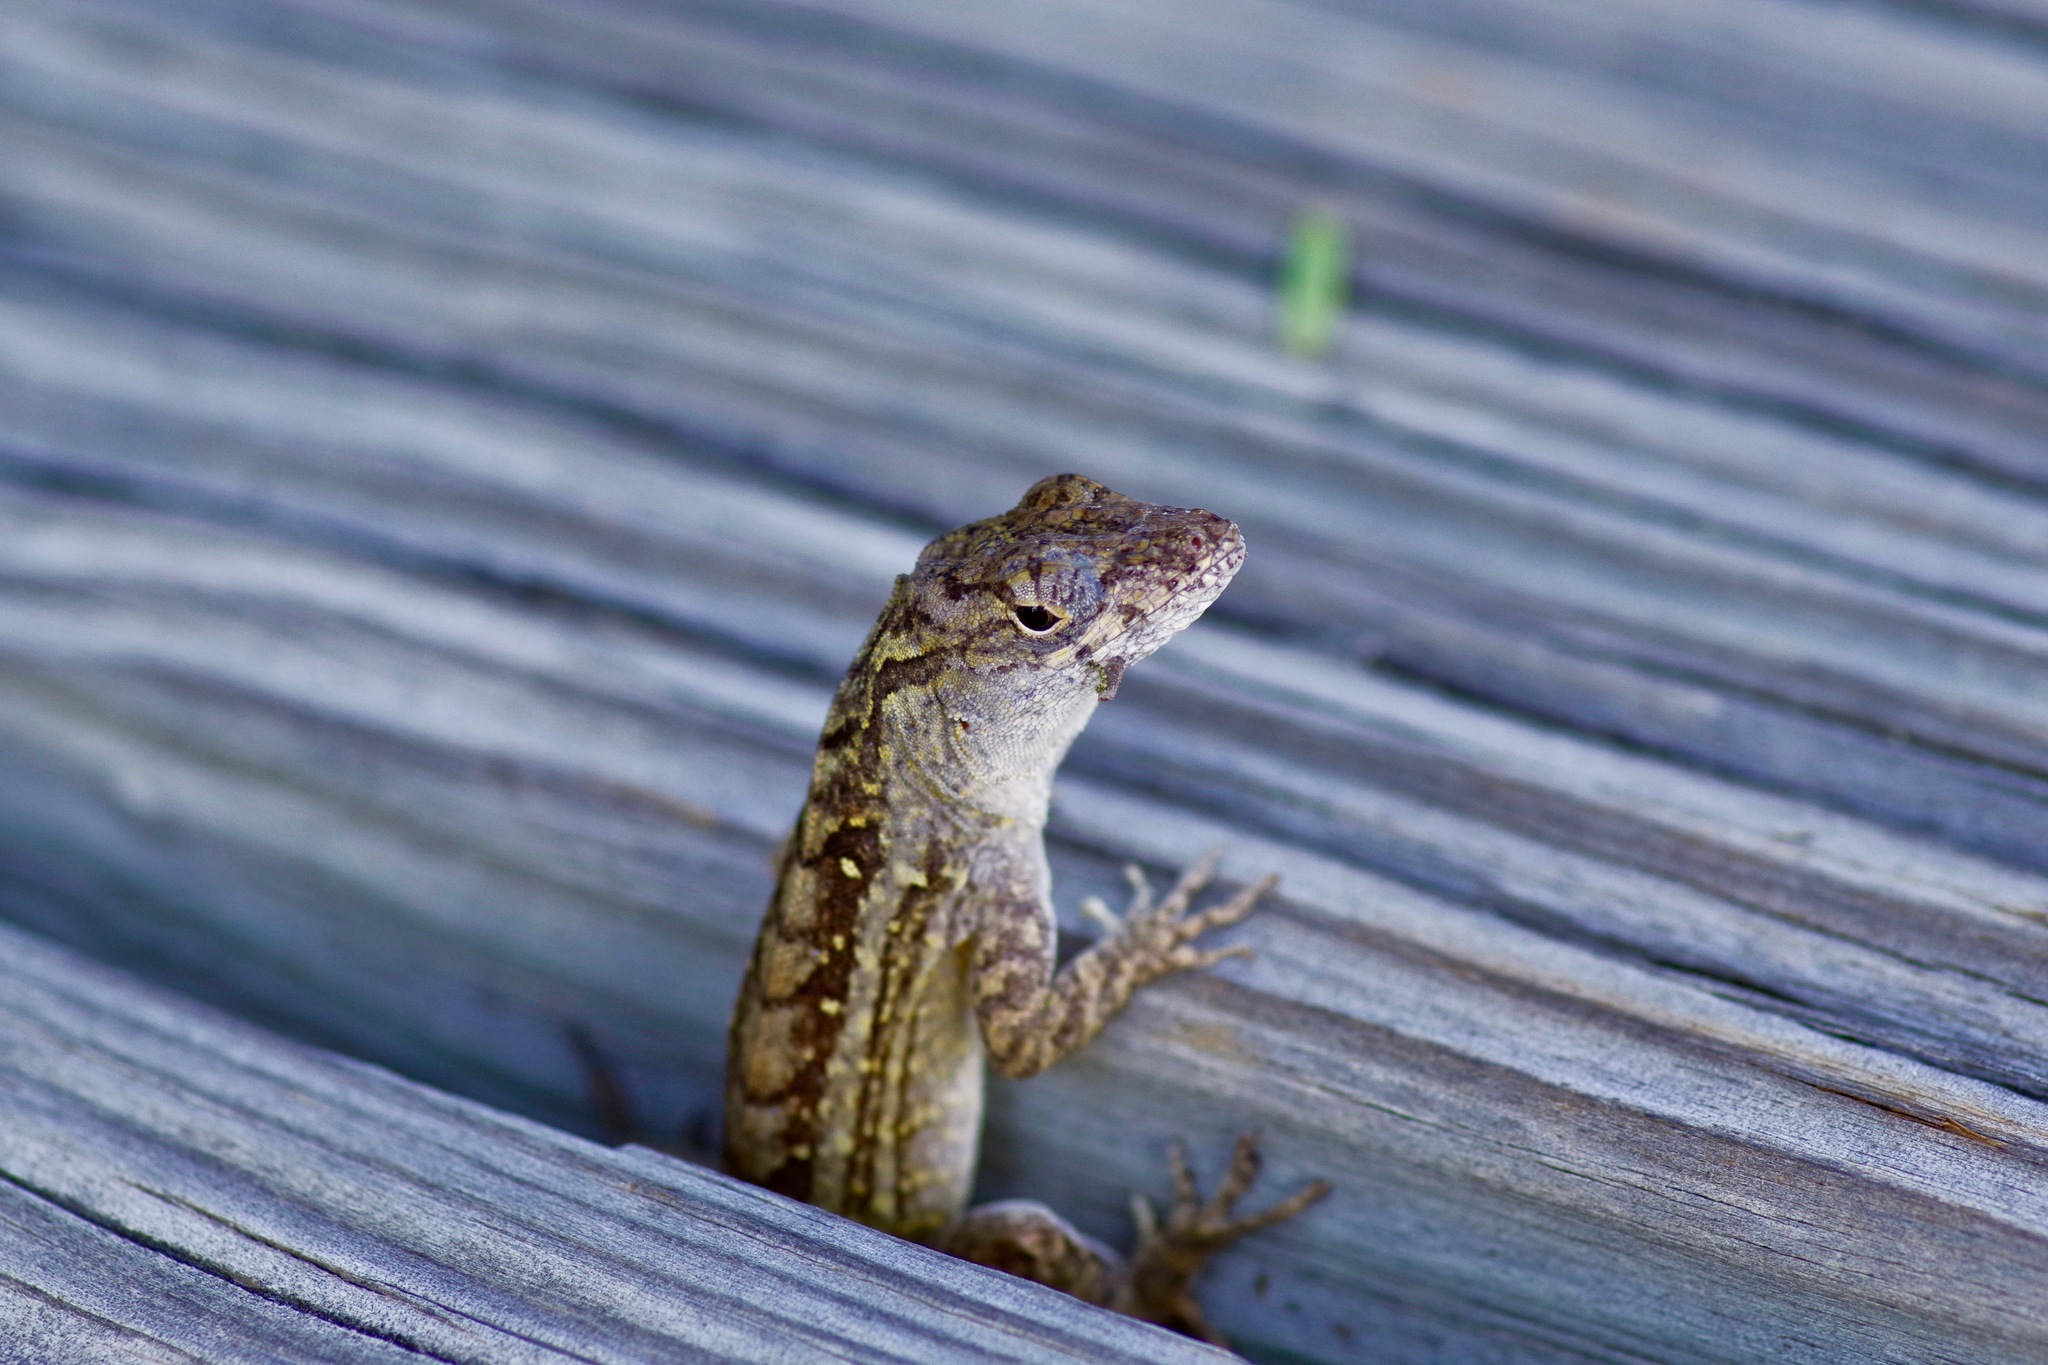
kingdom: Animalia
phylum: Chordata
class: Squamata
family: Dactyloidae
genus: Anolis
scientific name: Anolis sagrei
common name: Brown anole
